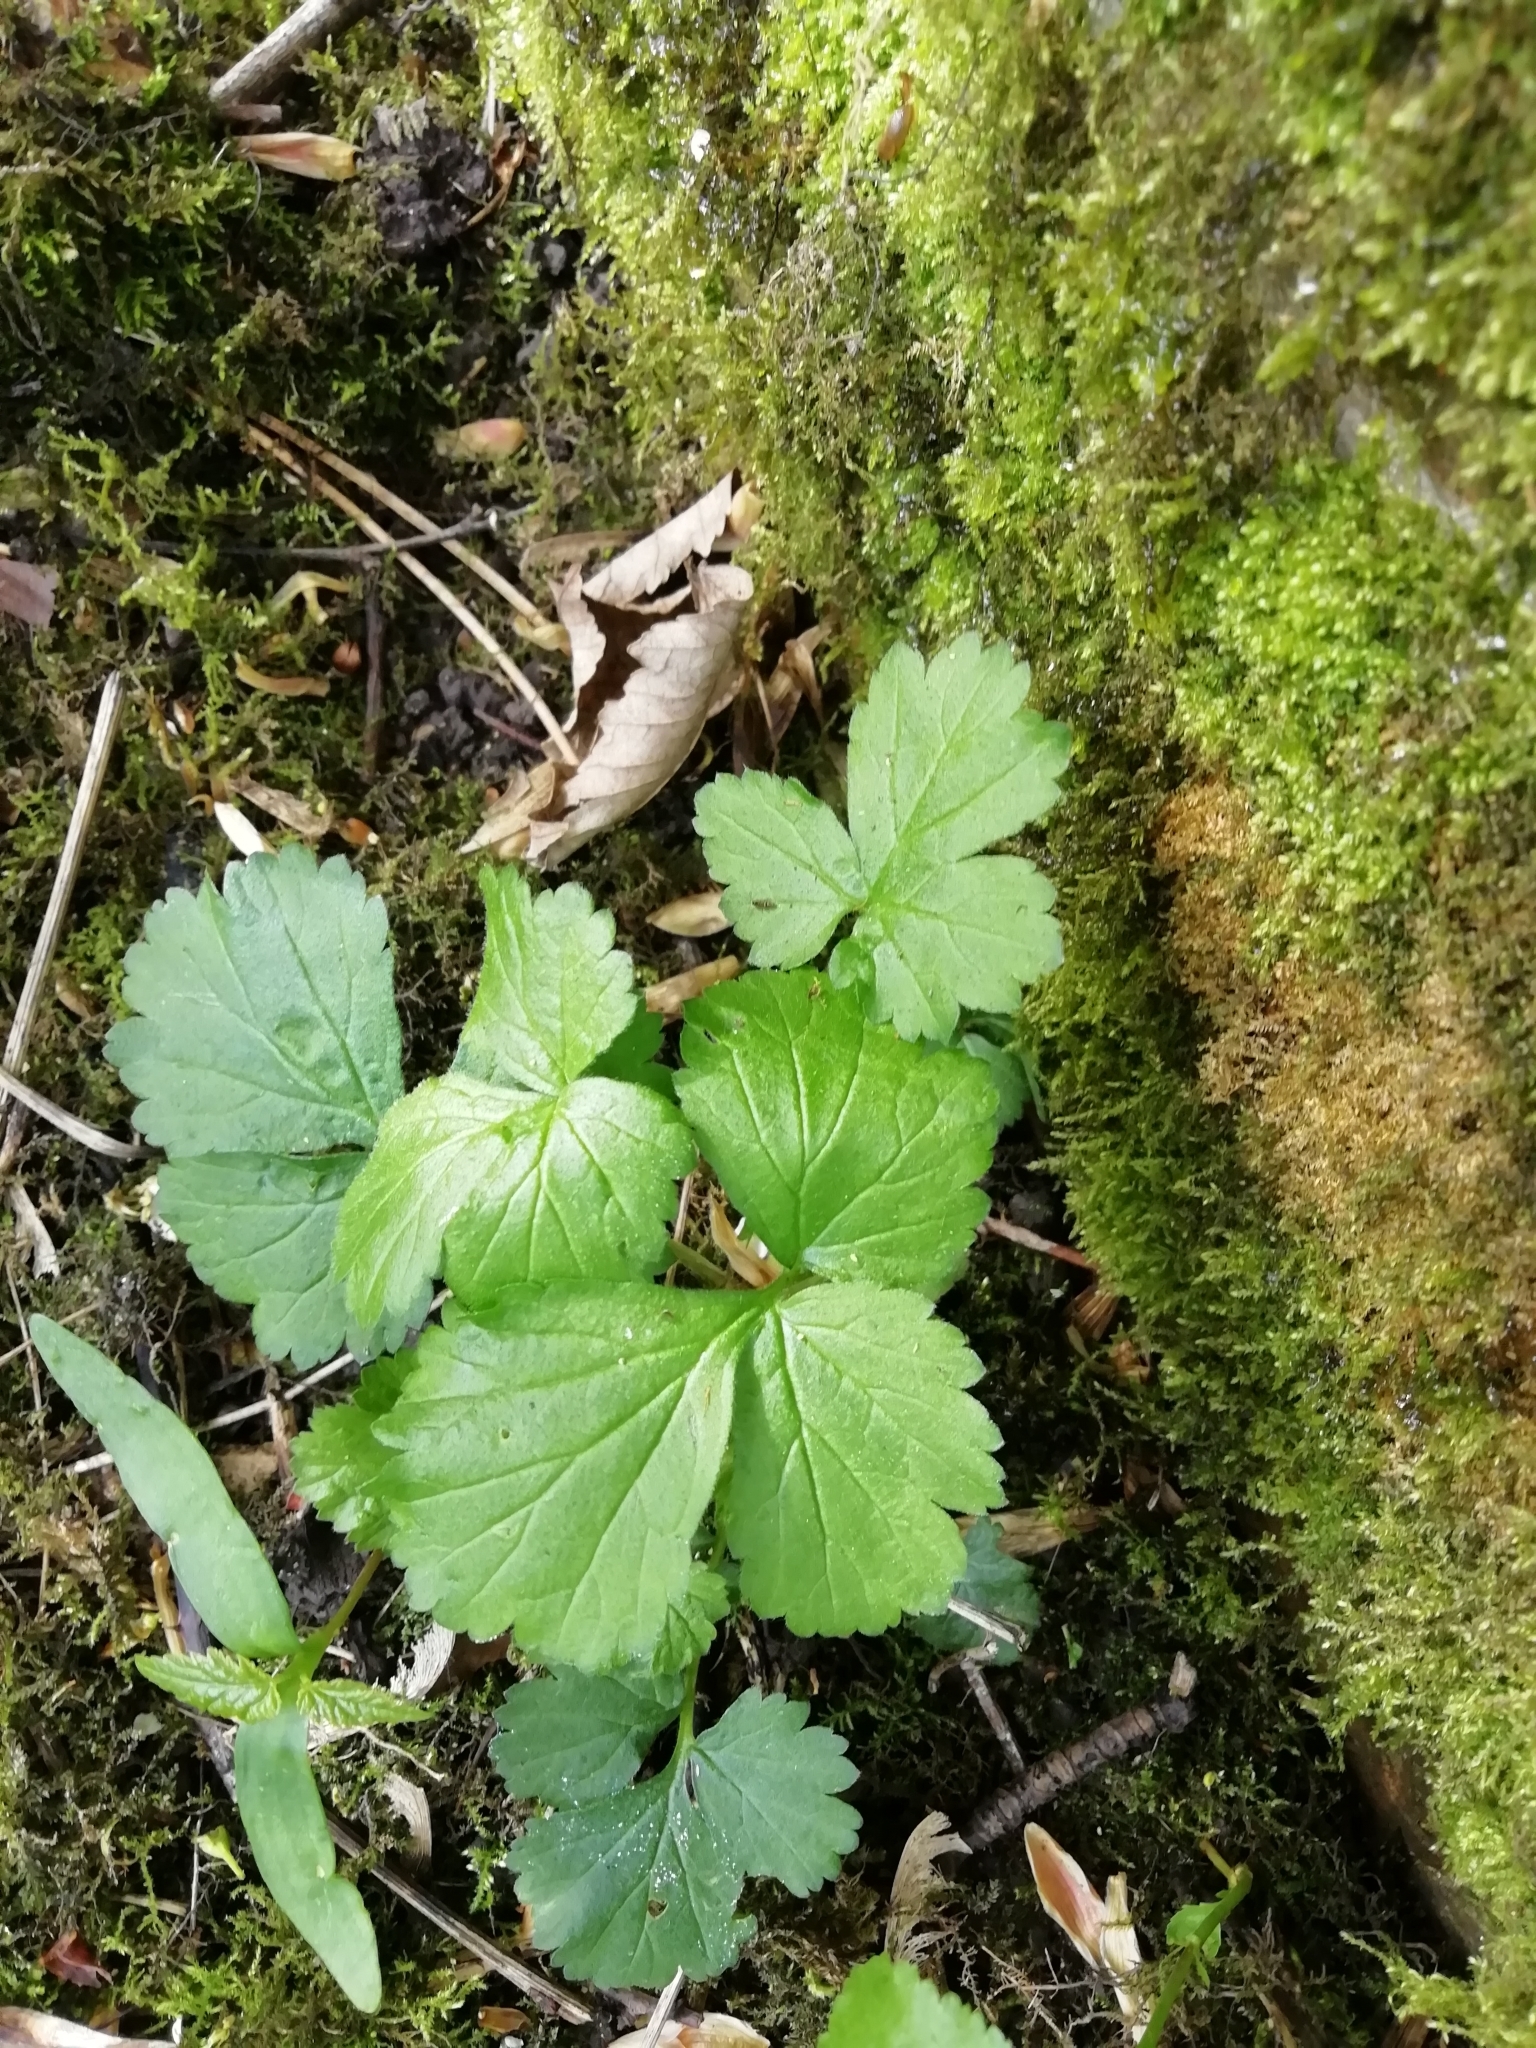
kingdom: Plantae
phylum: Tracheophyta
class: Magnoliopsida
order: Rosales
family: Rosaceae
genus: Geum
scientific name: Geum urbanum
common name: Wood avens
